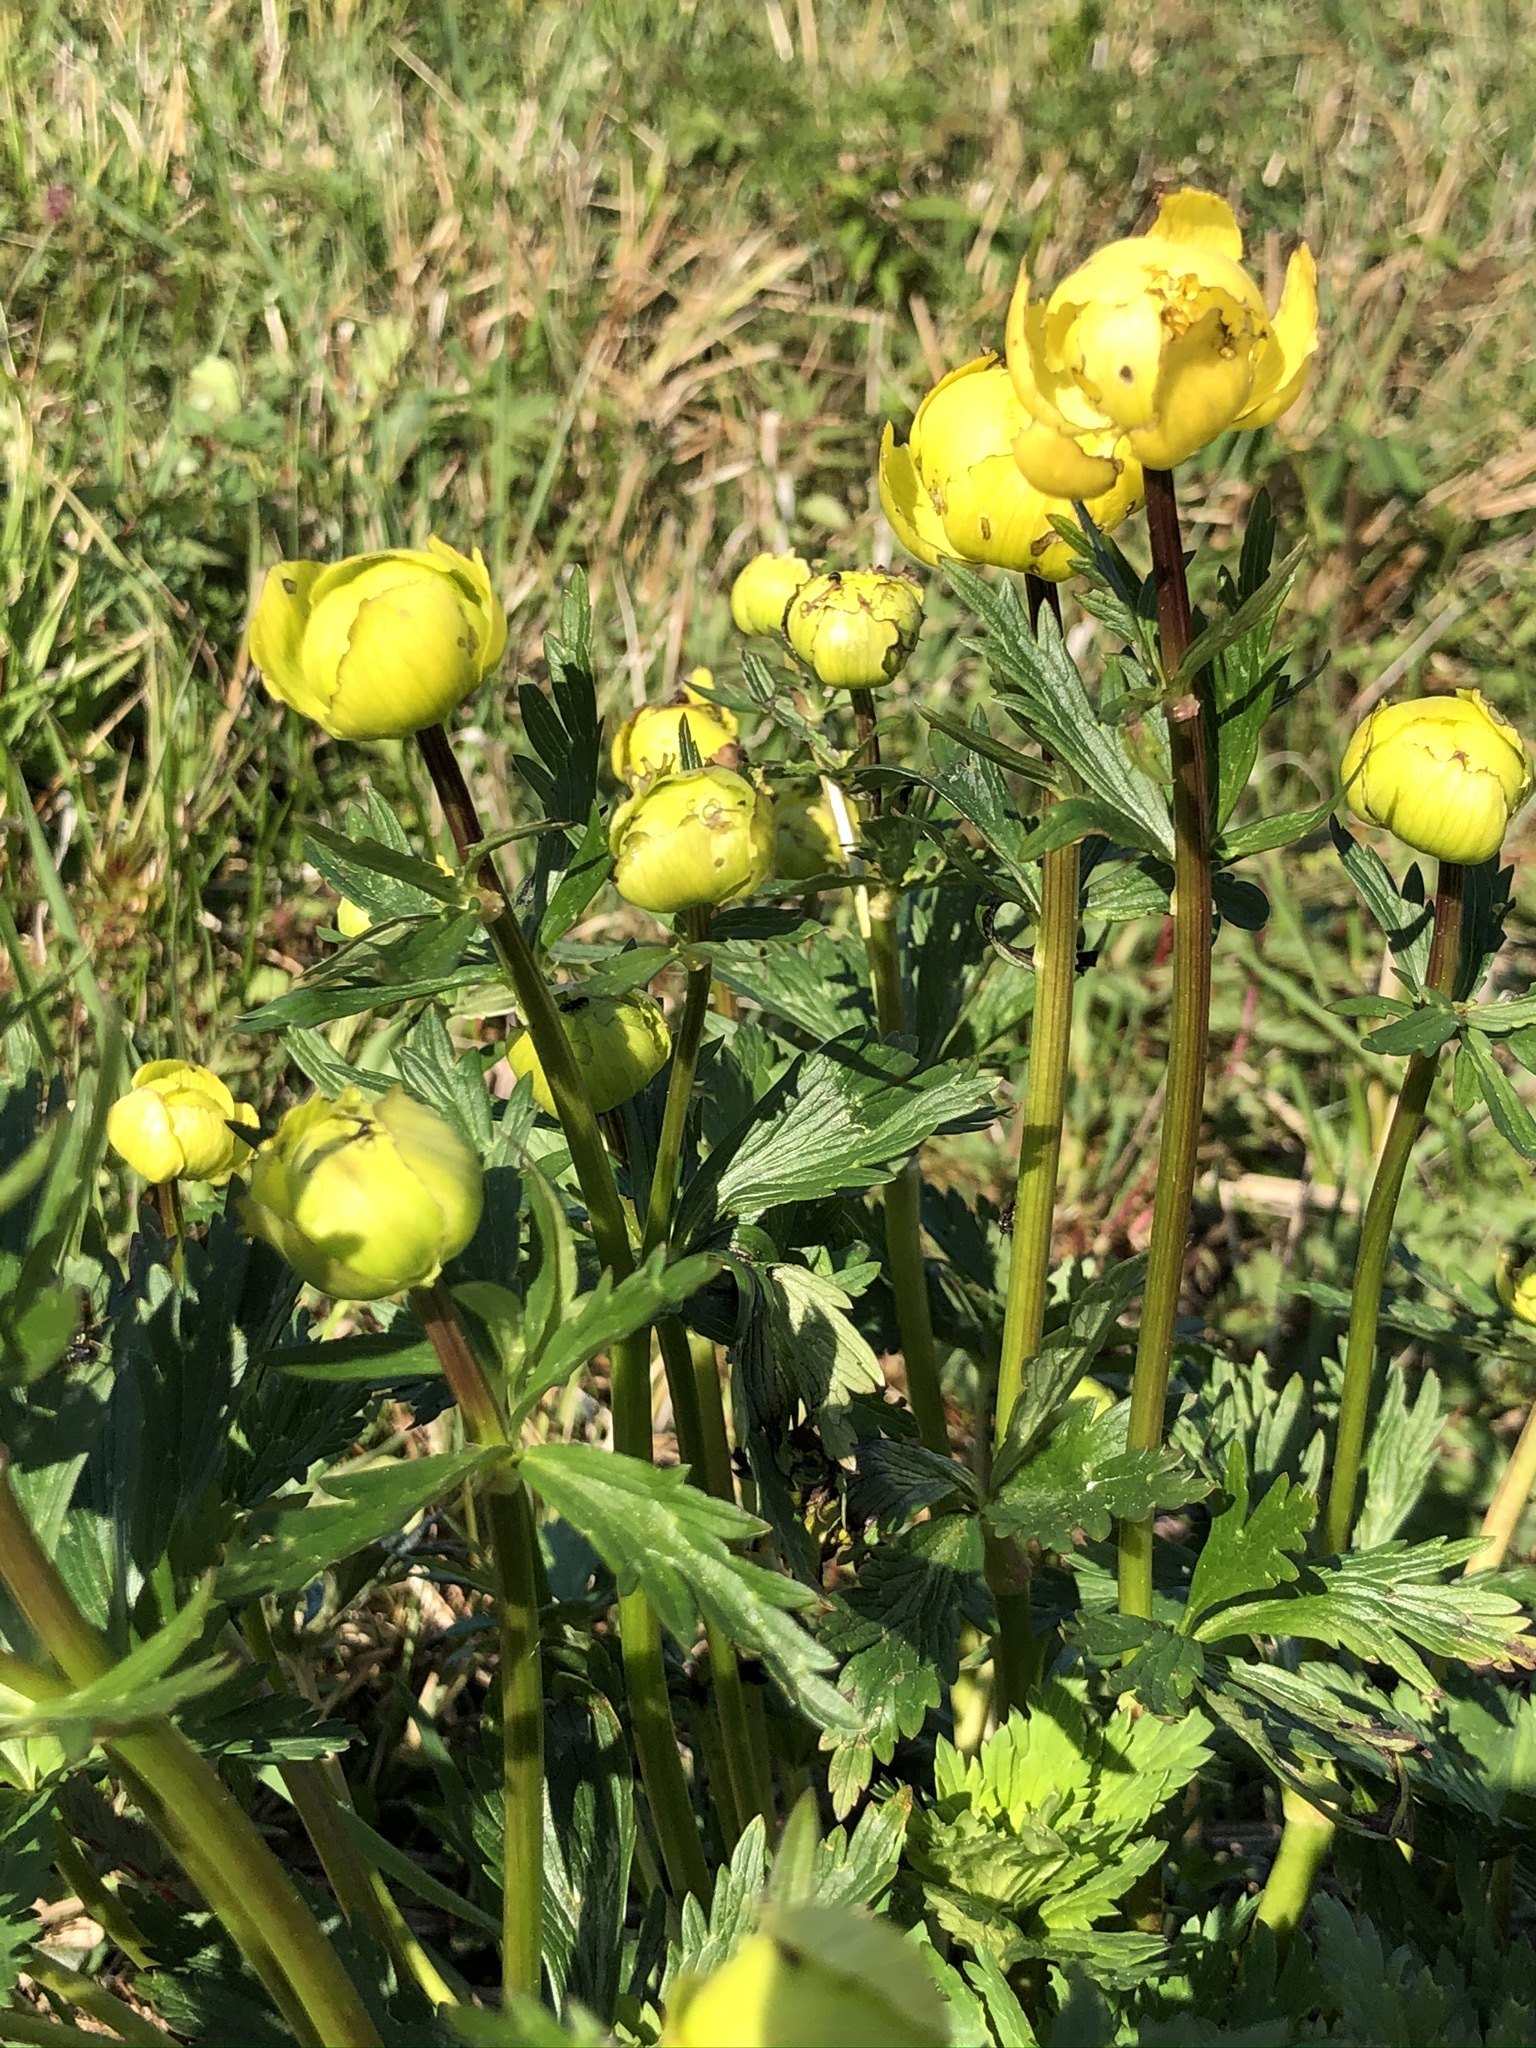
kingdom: Plantae
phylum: Tracheophyta
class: Magnoliopsida
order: Ranunculales
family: Ranunculaceae
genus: Trollius
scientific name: Trollius europaeus
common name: European globeflower
